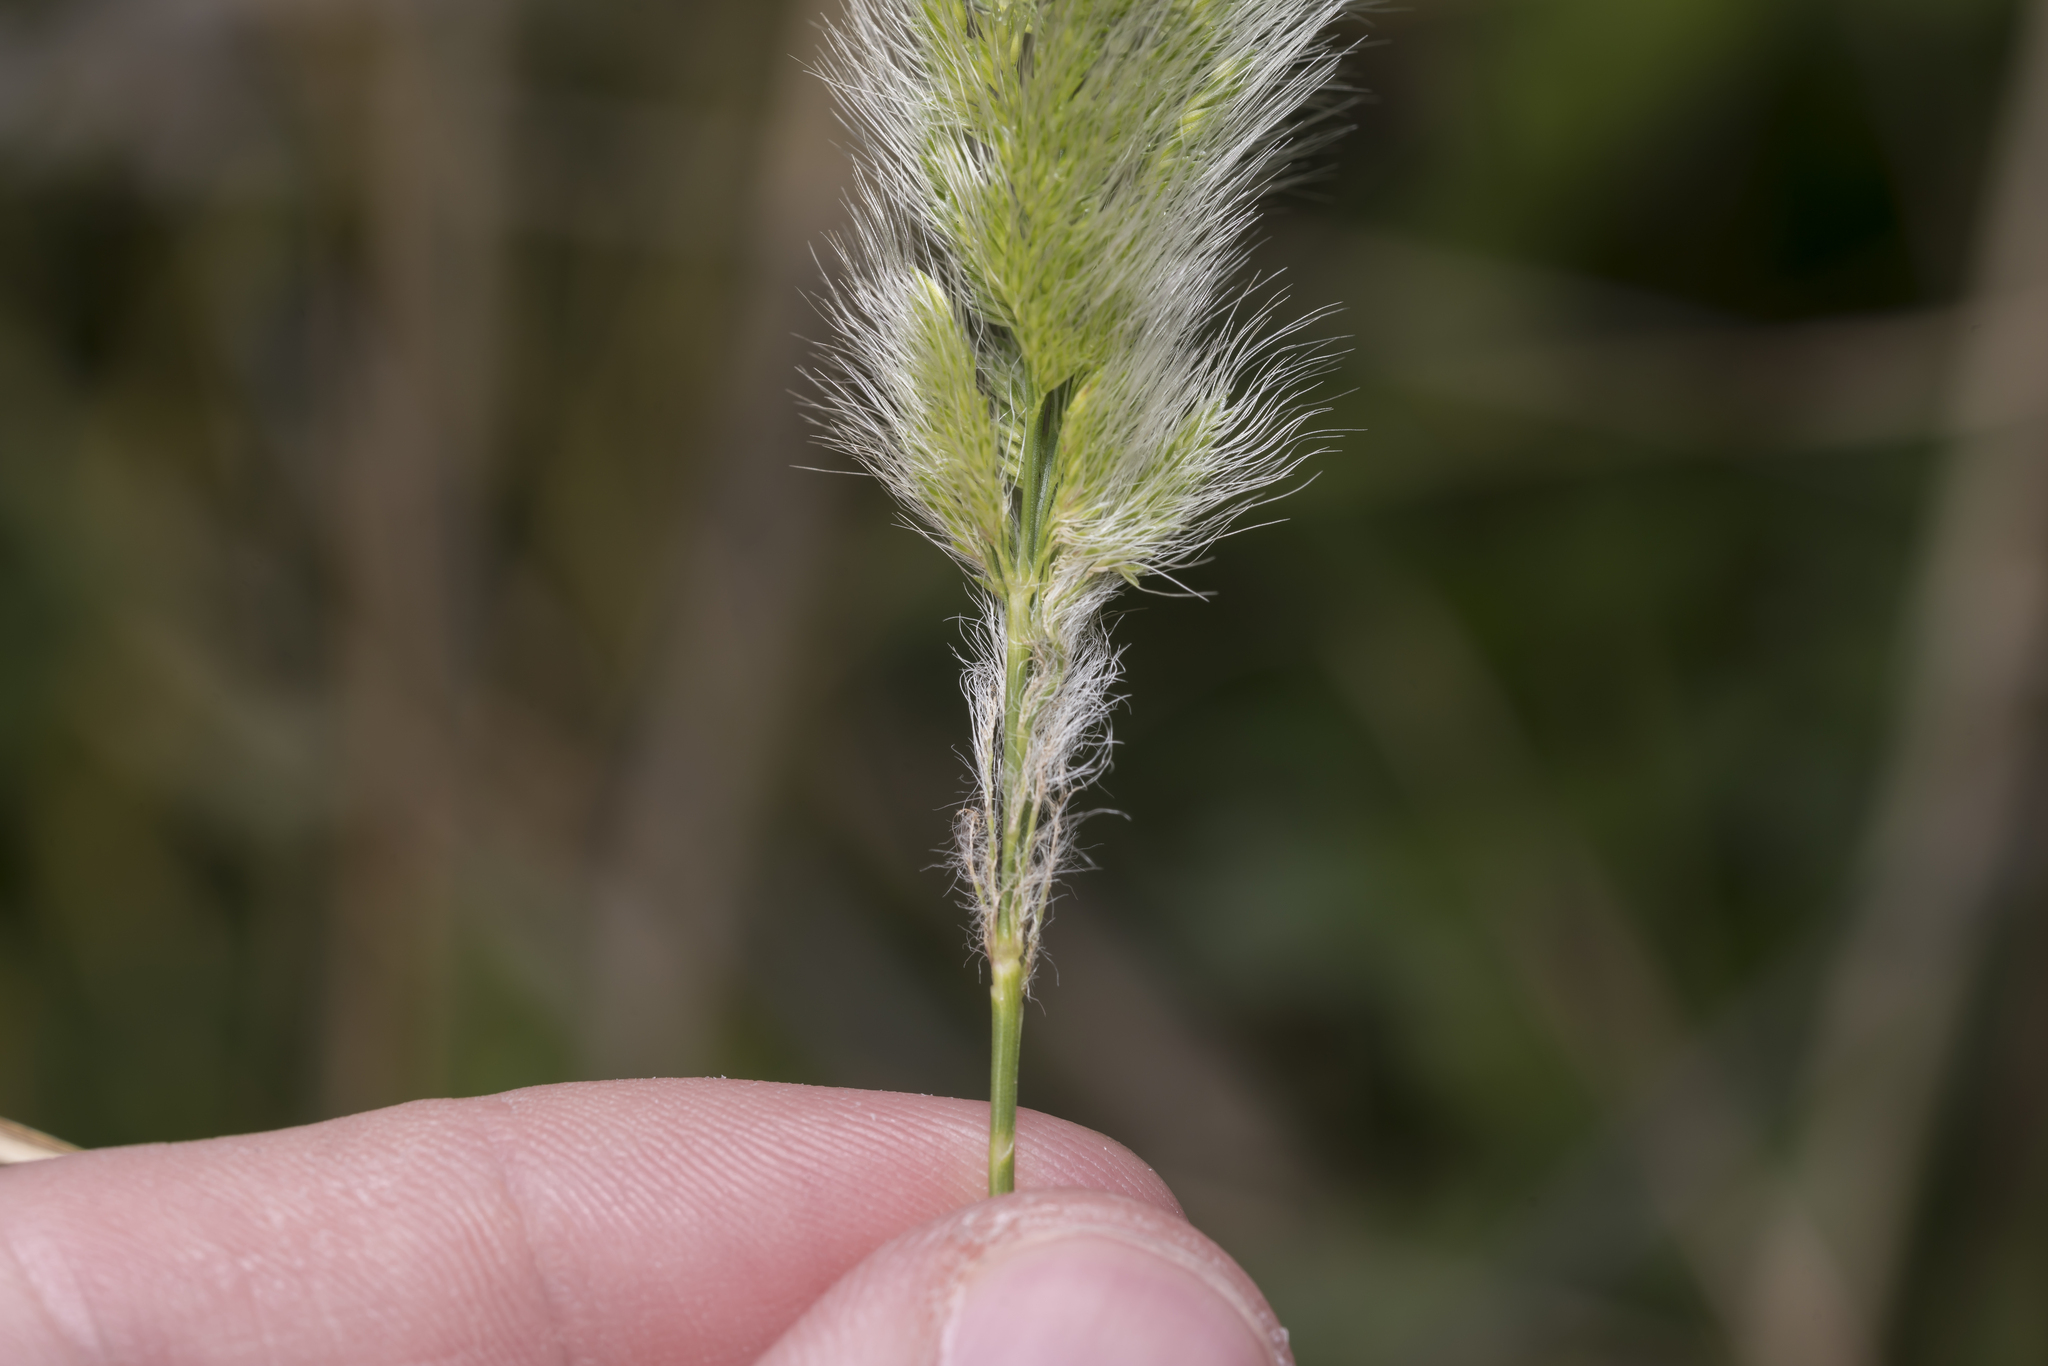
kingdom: Plantae
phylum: Tracheophyta
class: Liliopsida
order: Poales
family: Poaceae
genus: Polypogon
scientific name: Polypogon monspeliensis
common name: Annual rabbitsfoot grass
